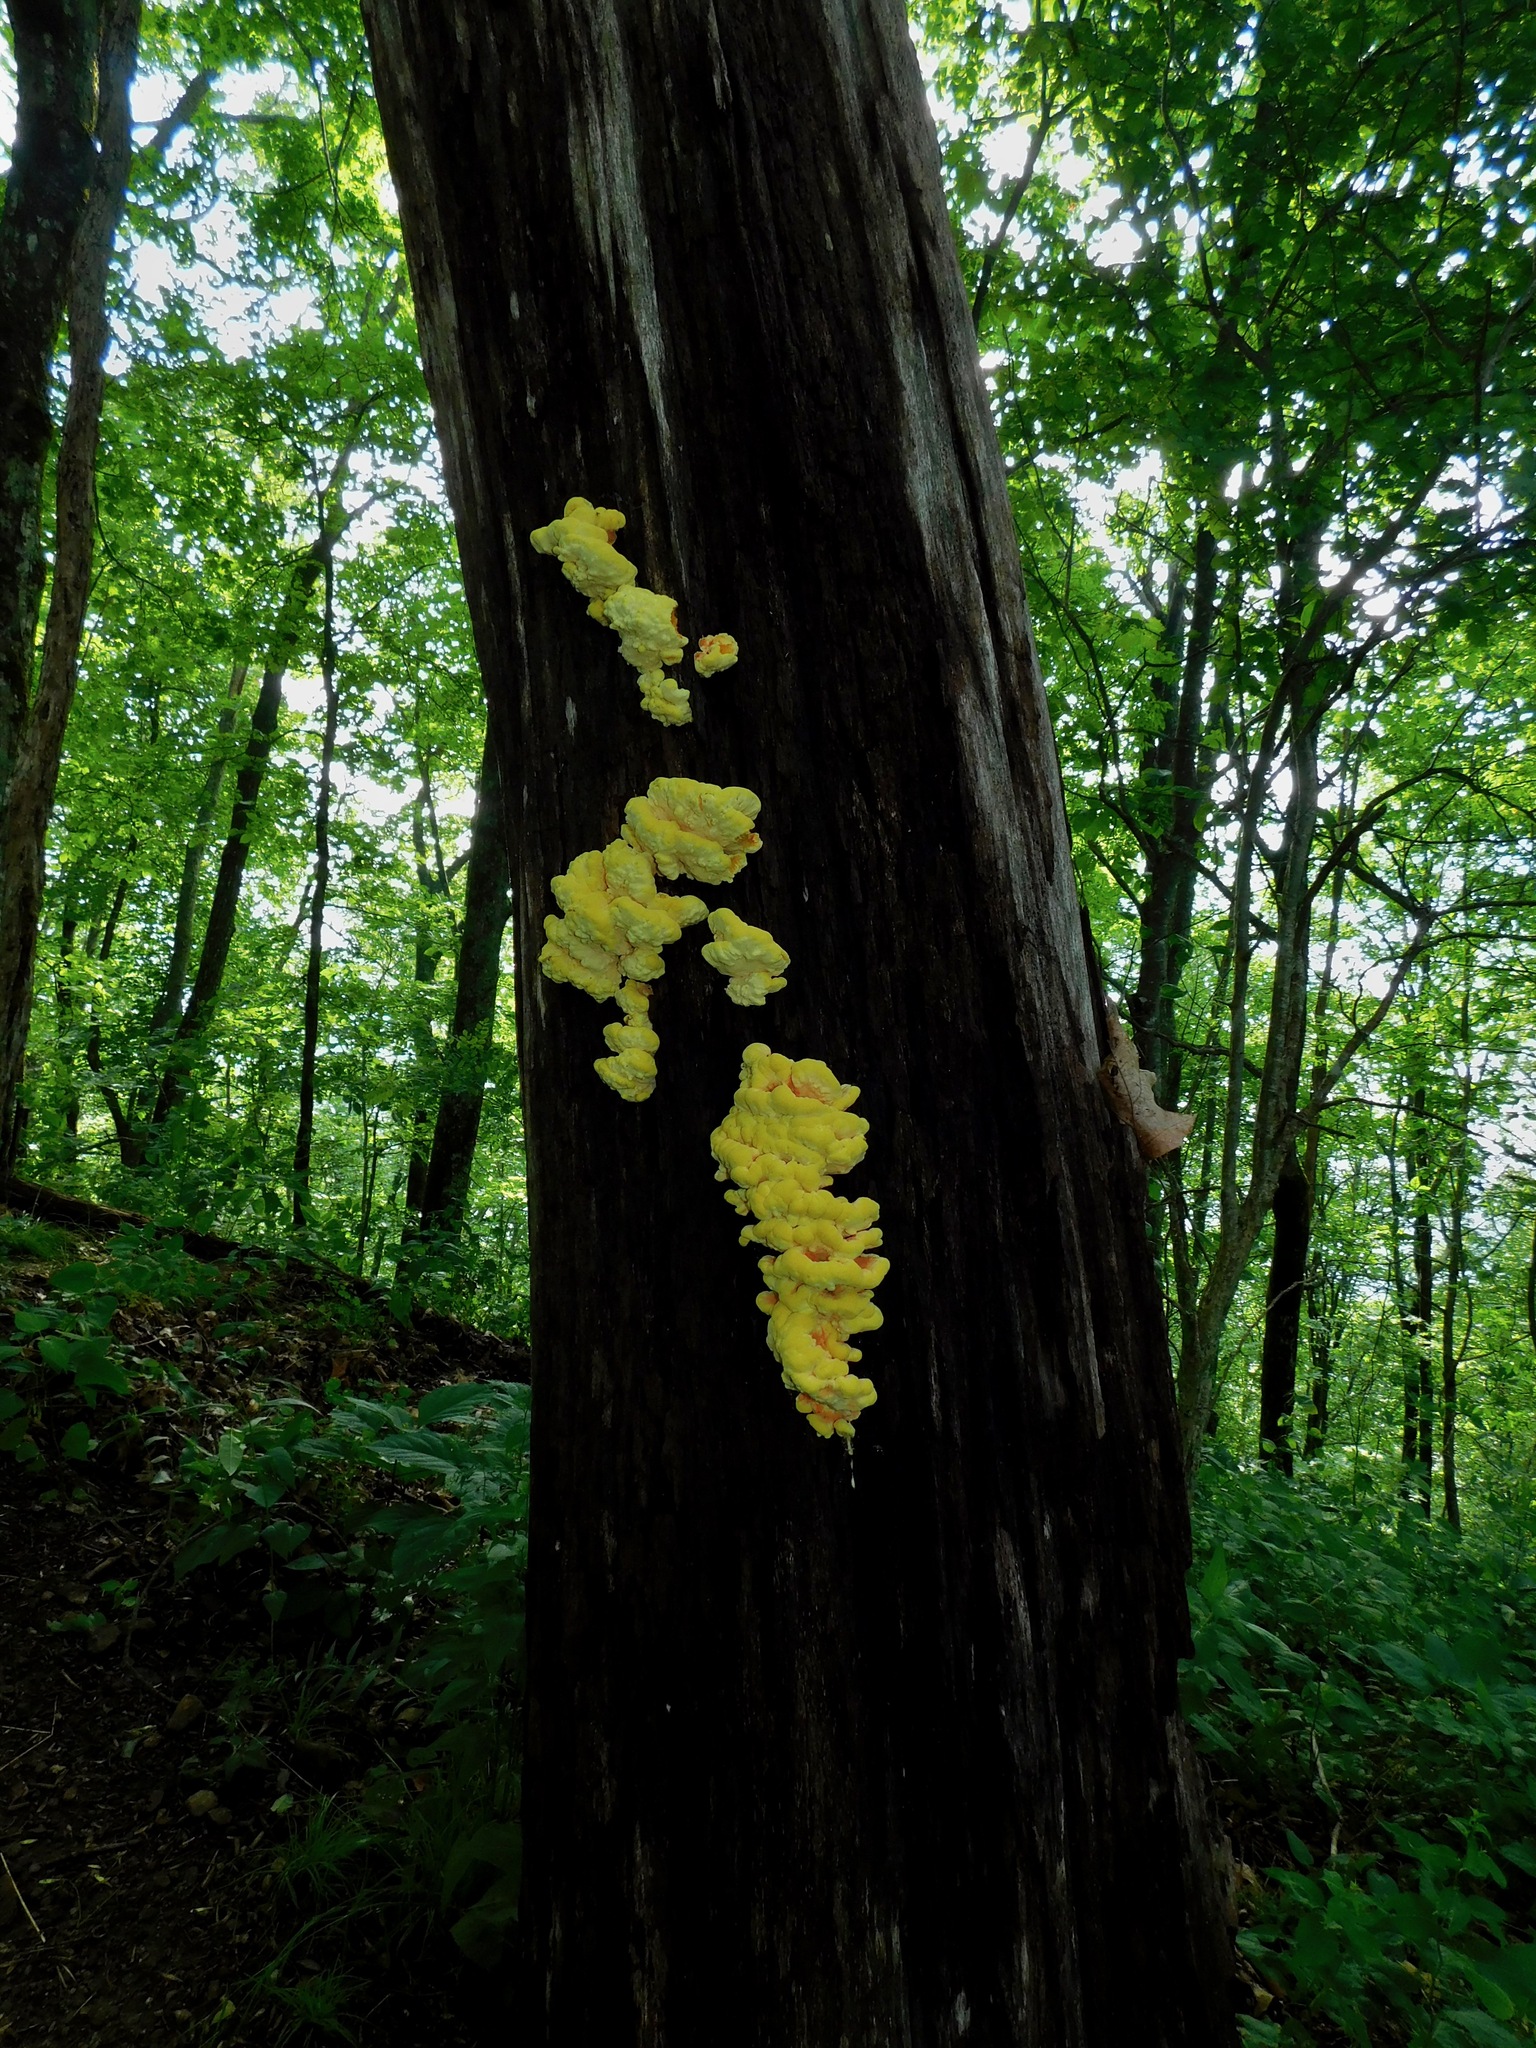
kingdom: Fungi
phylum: Basidiomycota
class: Agaricomycetes
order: Polyporales
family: Laetiporaceae
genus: Laetiporus
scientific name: Laetiporus sulphureus
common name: Chicken of the woods
